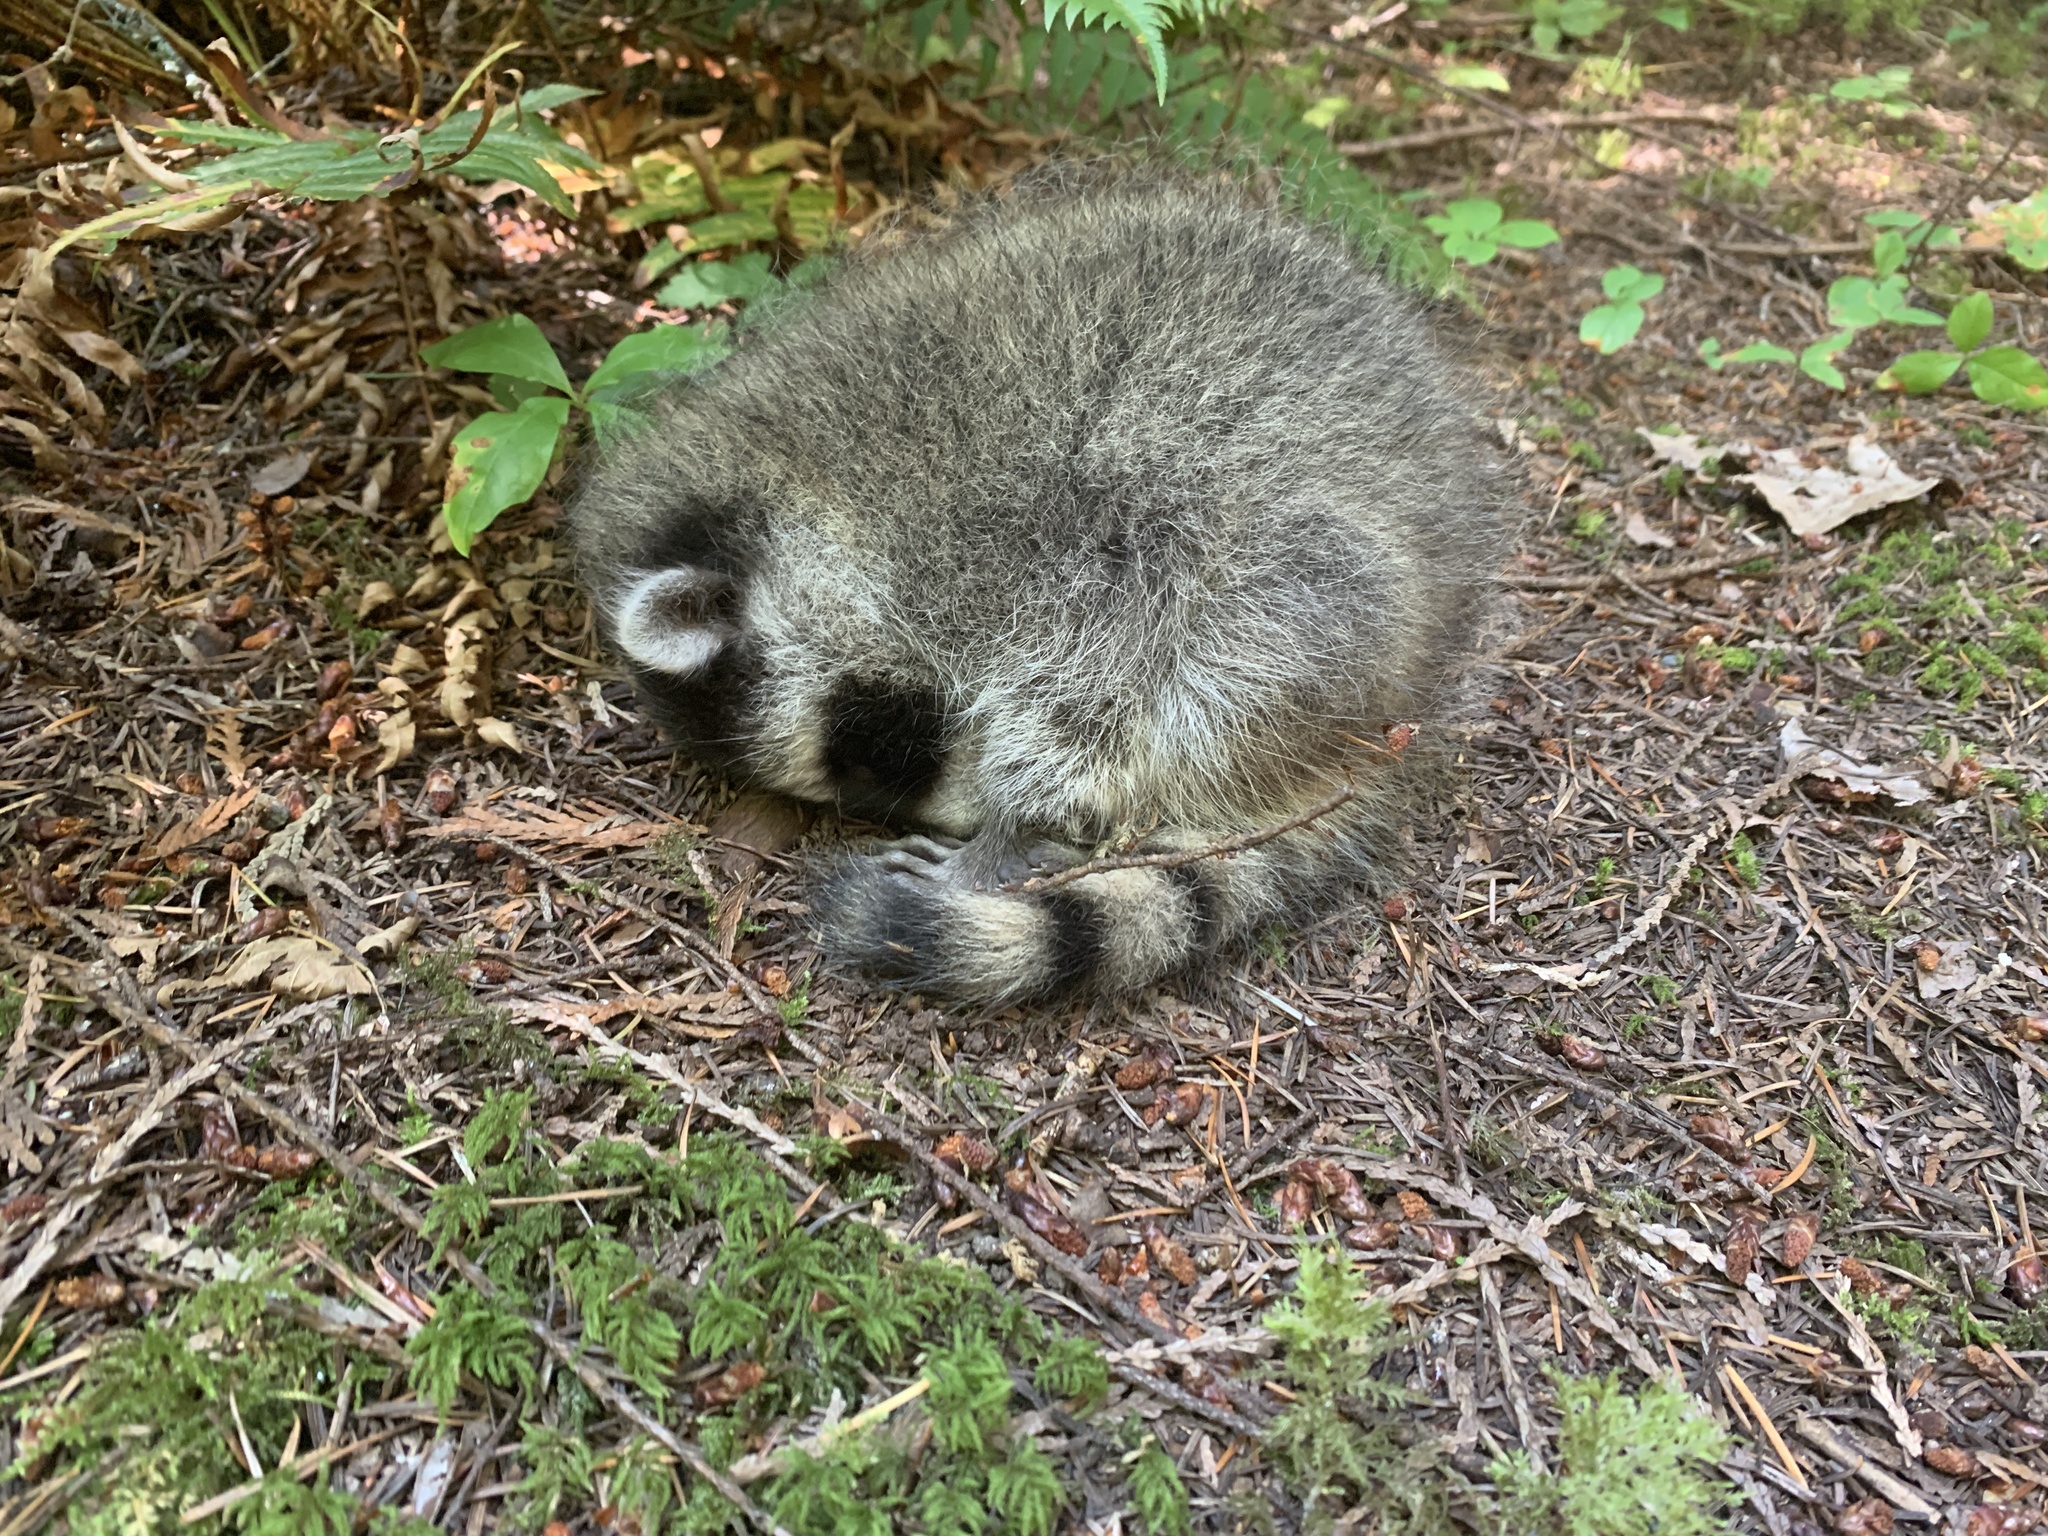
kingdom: Animalia
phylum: Chordata
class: Mammalia
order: Carnivora
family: Procyonidae
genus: Procyon
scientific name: Procyon lotor
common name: Raccoon
